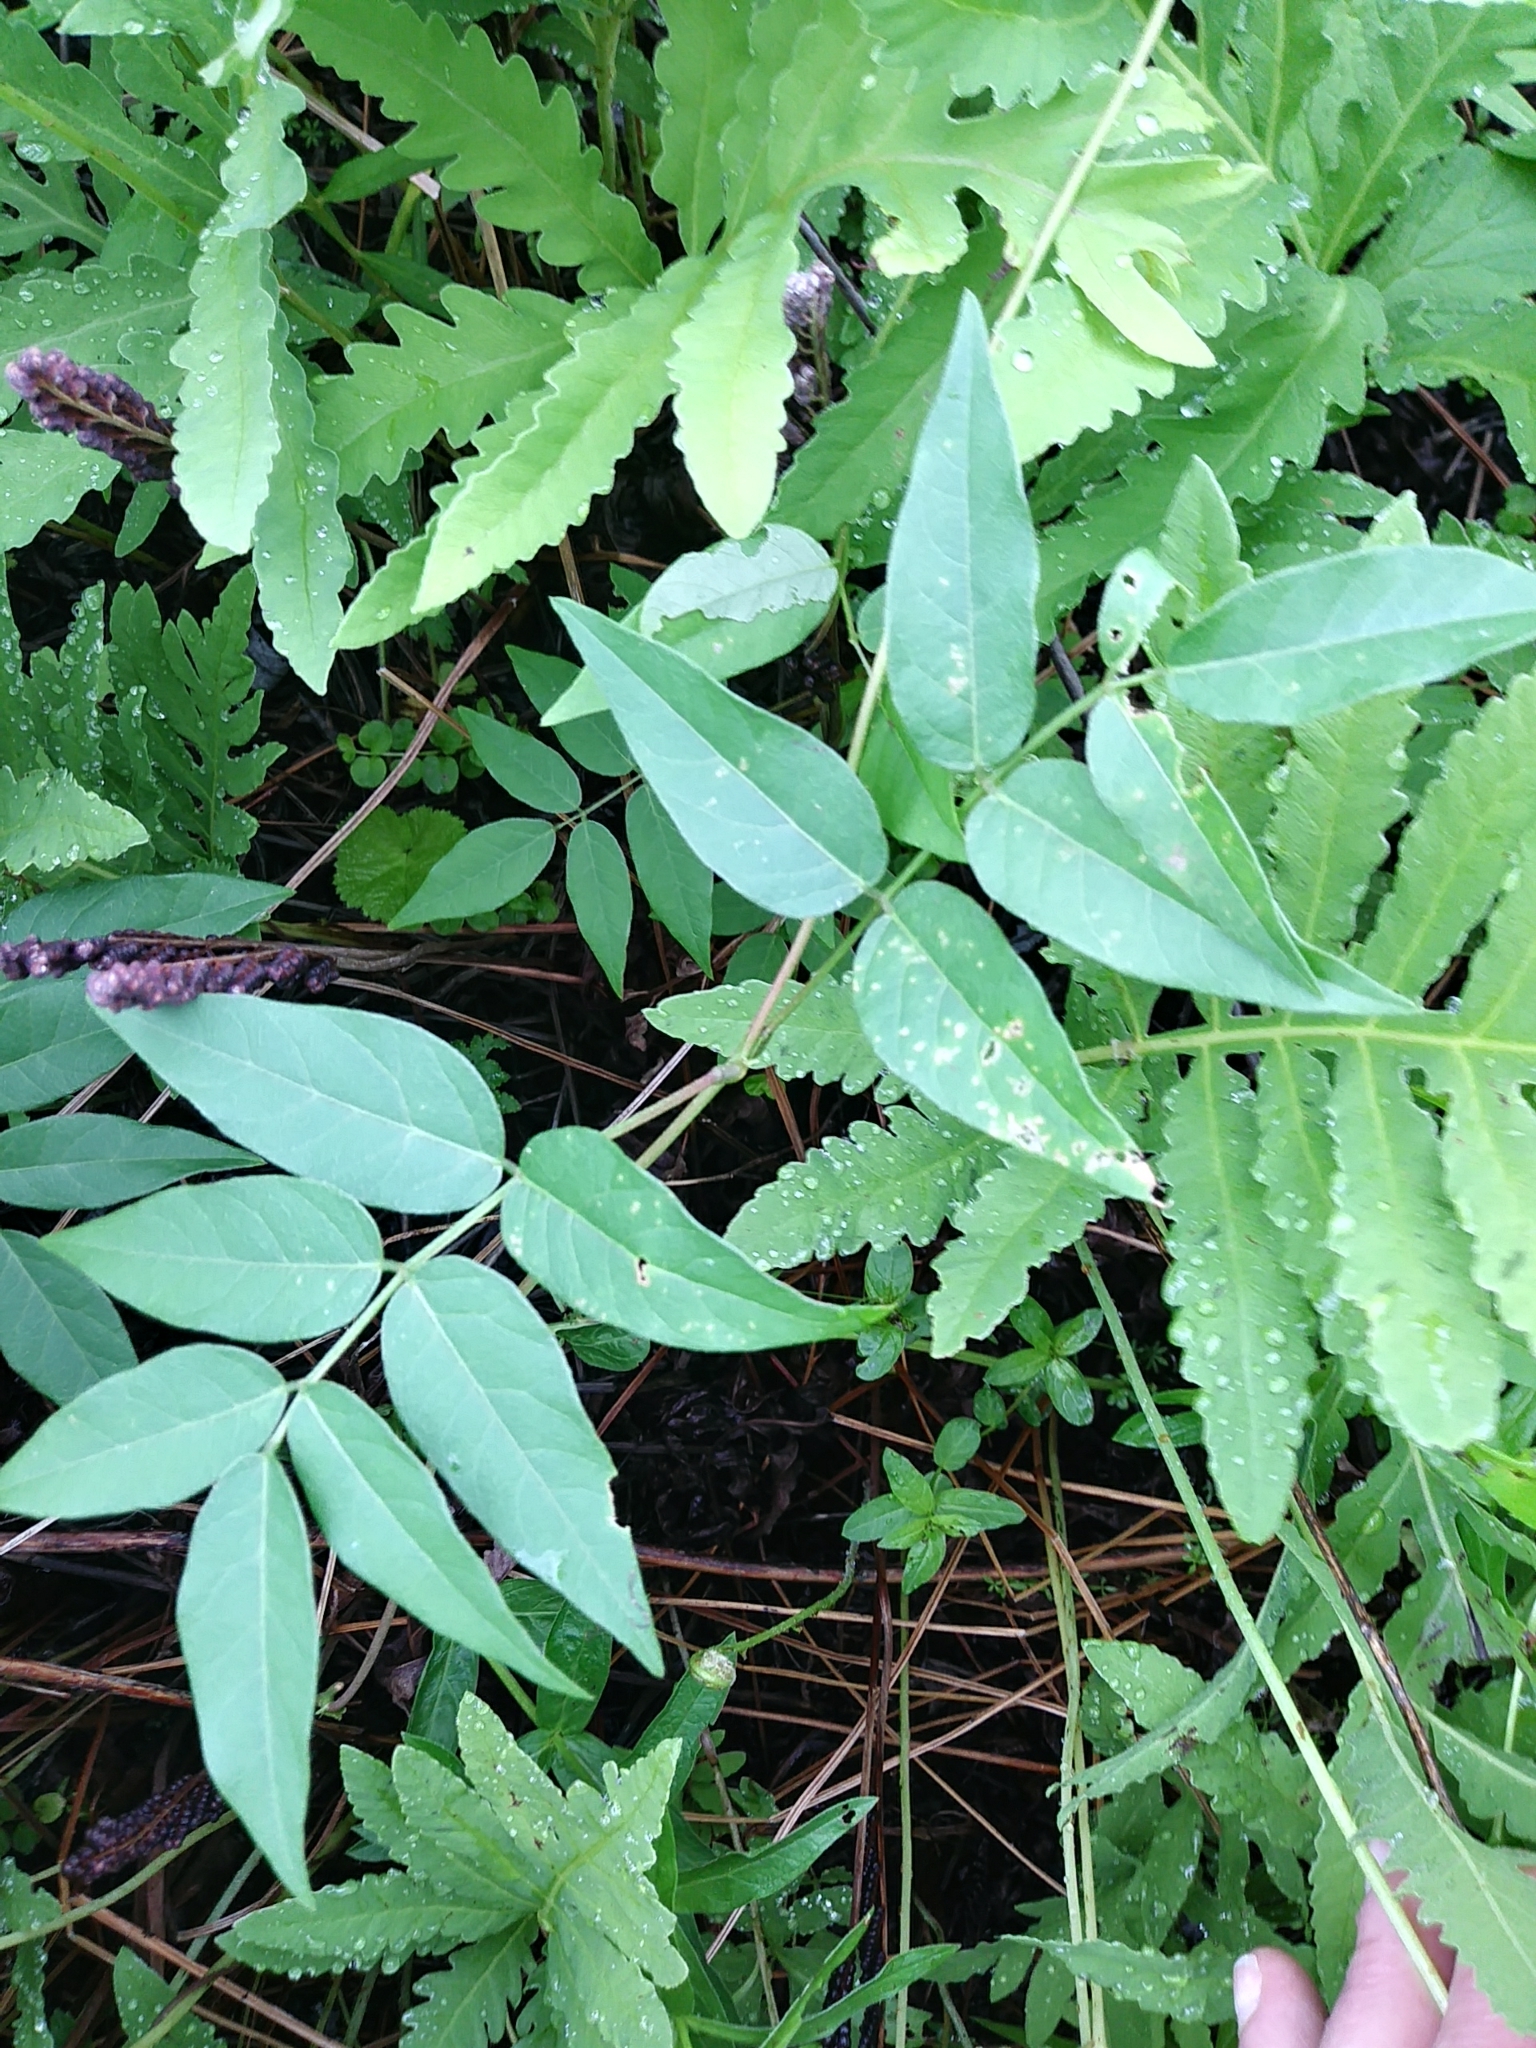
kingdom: Plantae
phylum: Tracheophyta
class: Magnoliopsida
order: Fabales
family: Fabaceae
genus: Apios
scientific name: Apios americana
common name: American potato-bean
